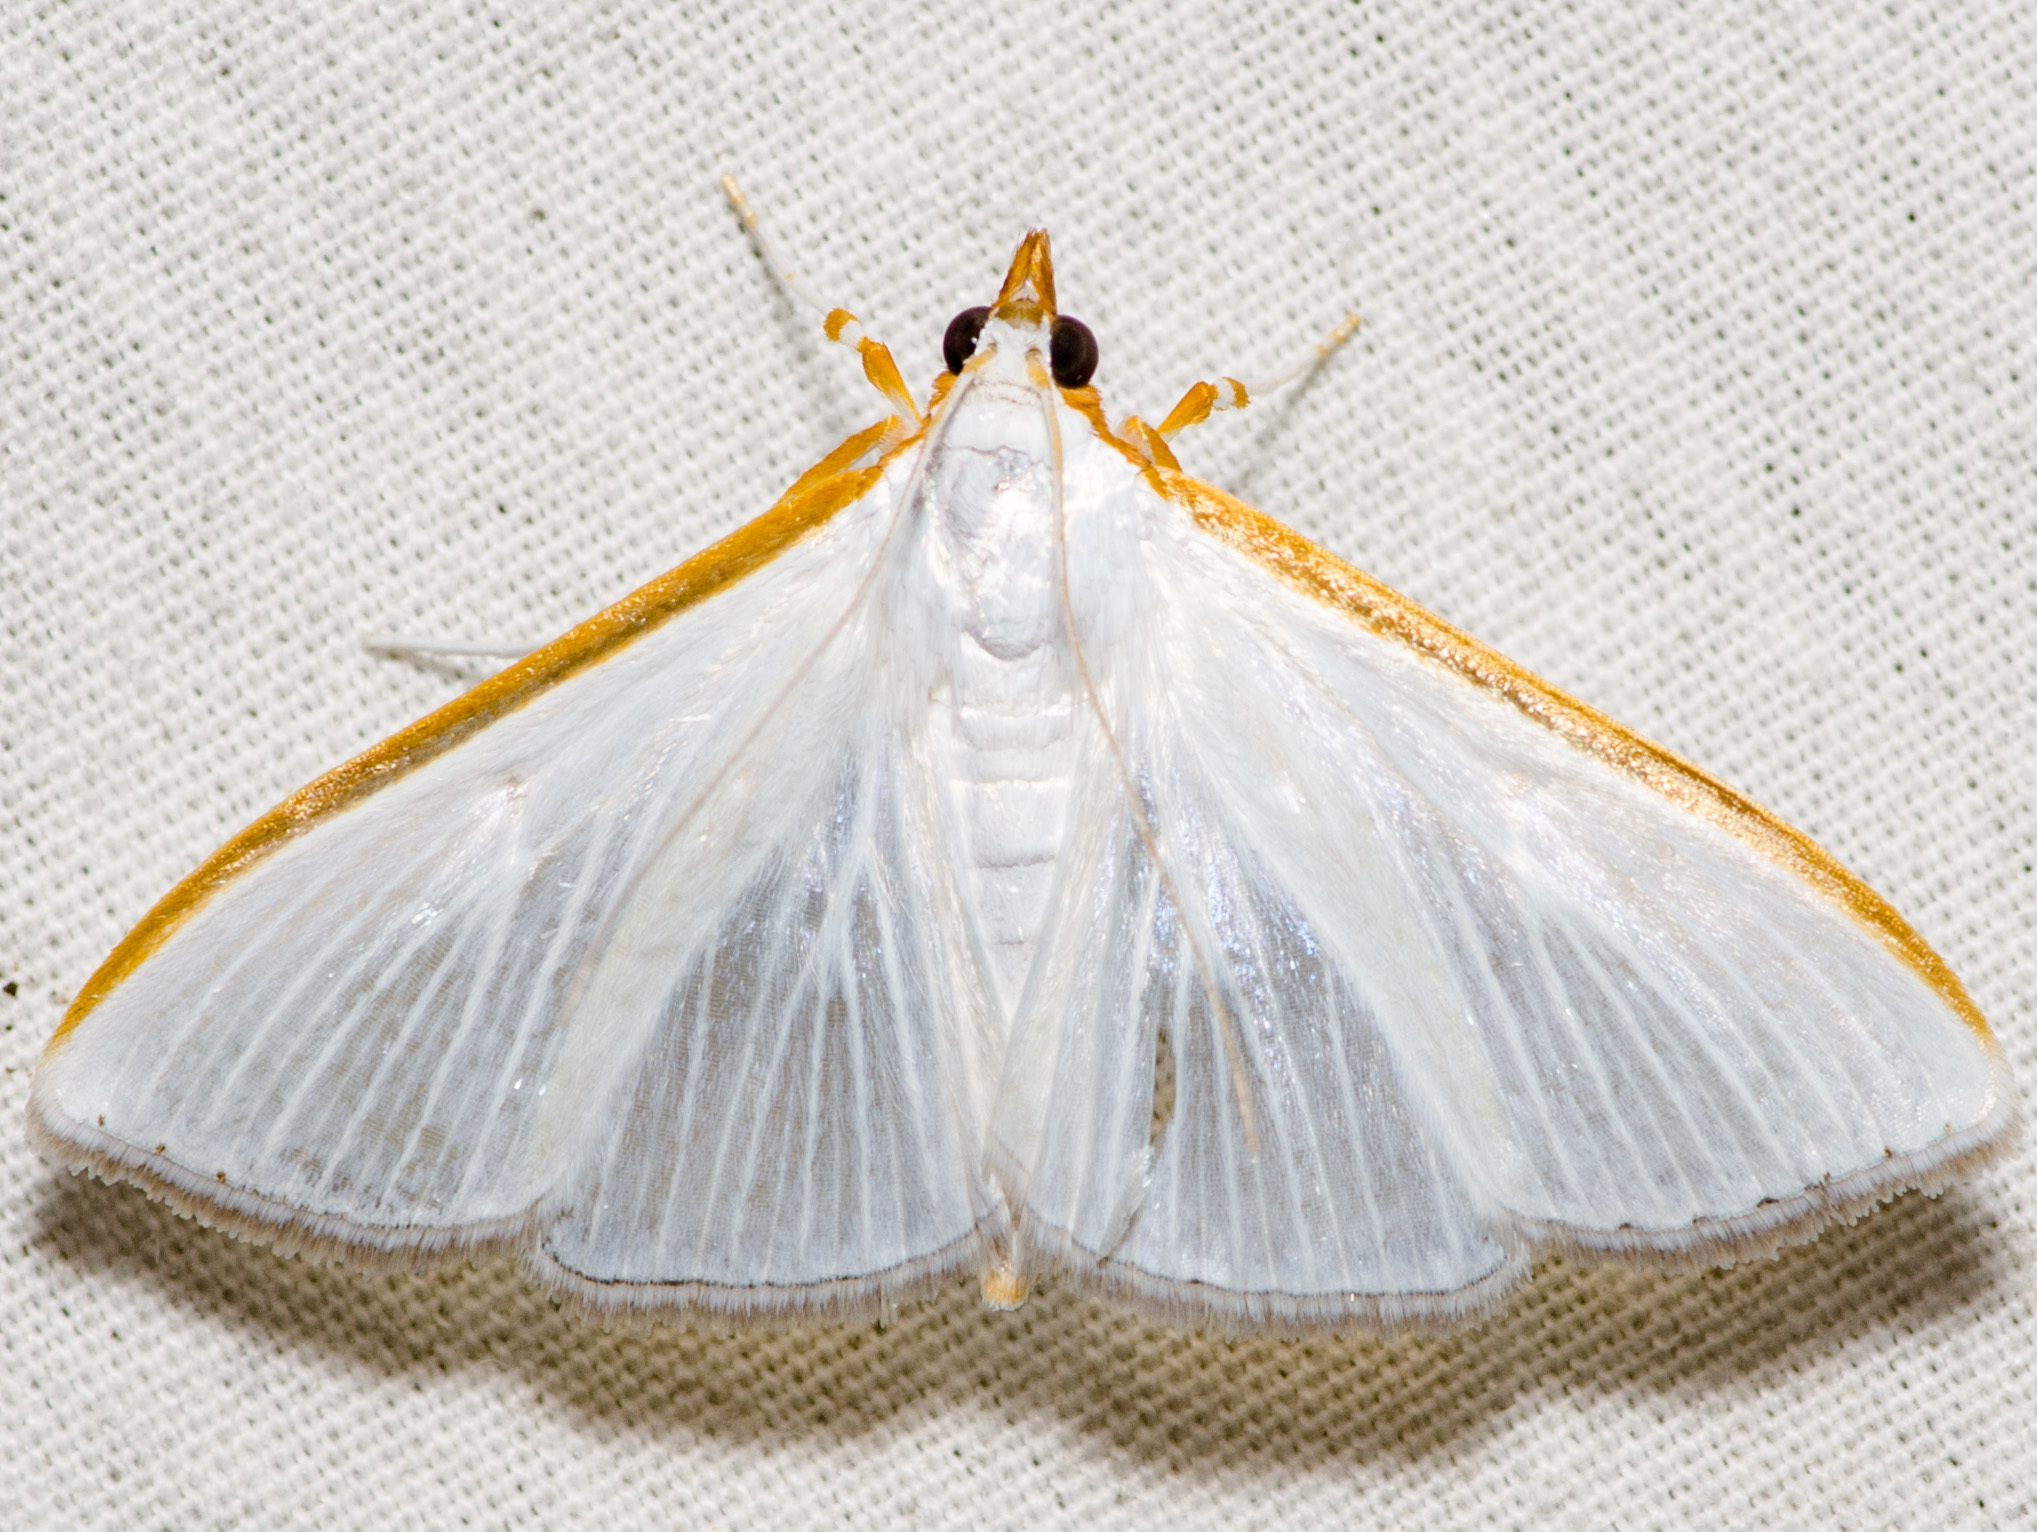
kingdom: Animalia
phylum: Arthropoda
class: Insecta
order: Lepidoptera
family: Crambidae
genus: Diaphania
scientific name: Diaphania costata
